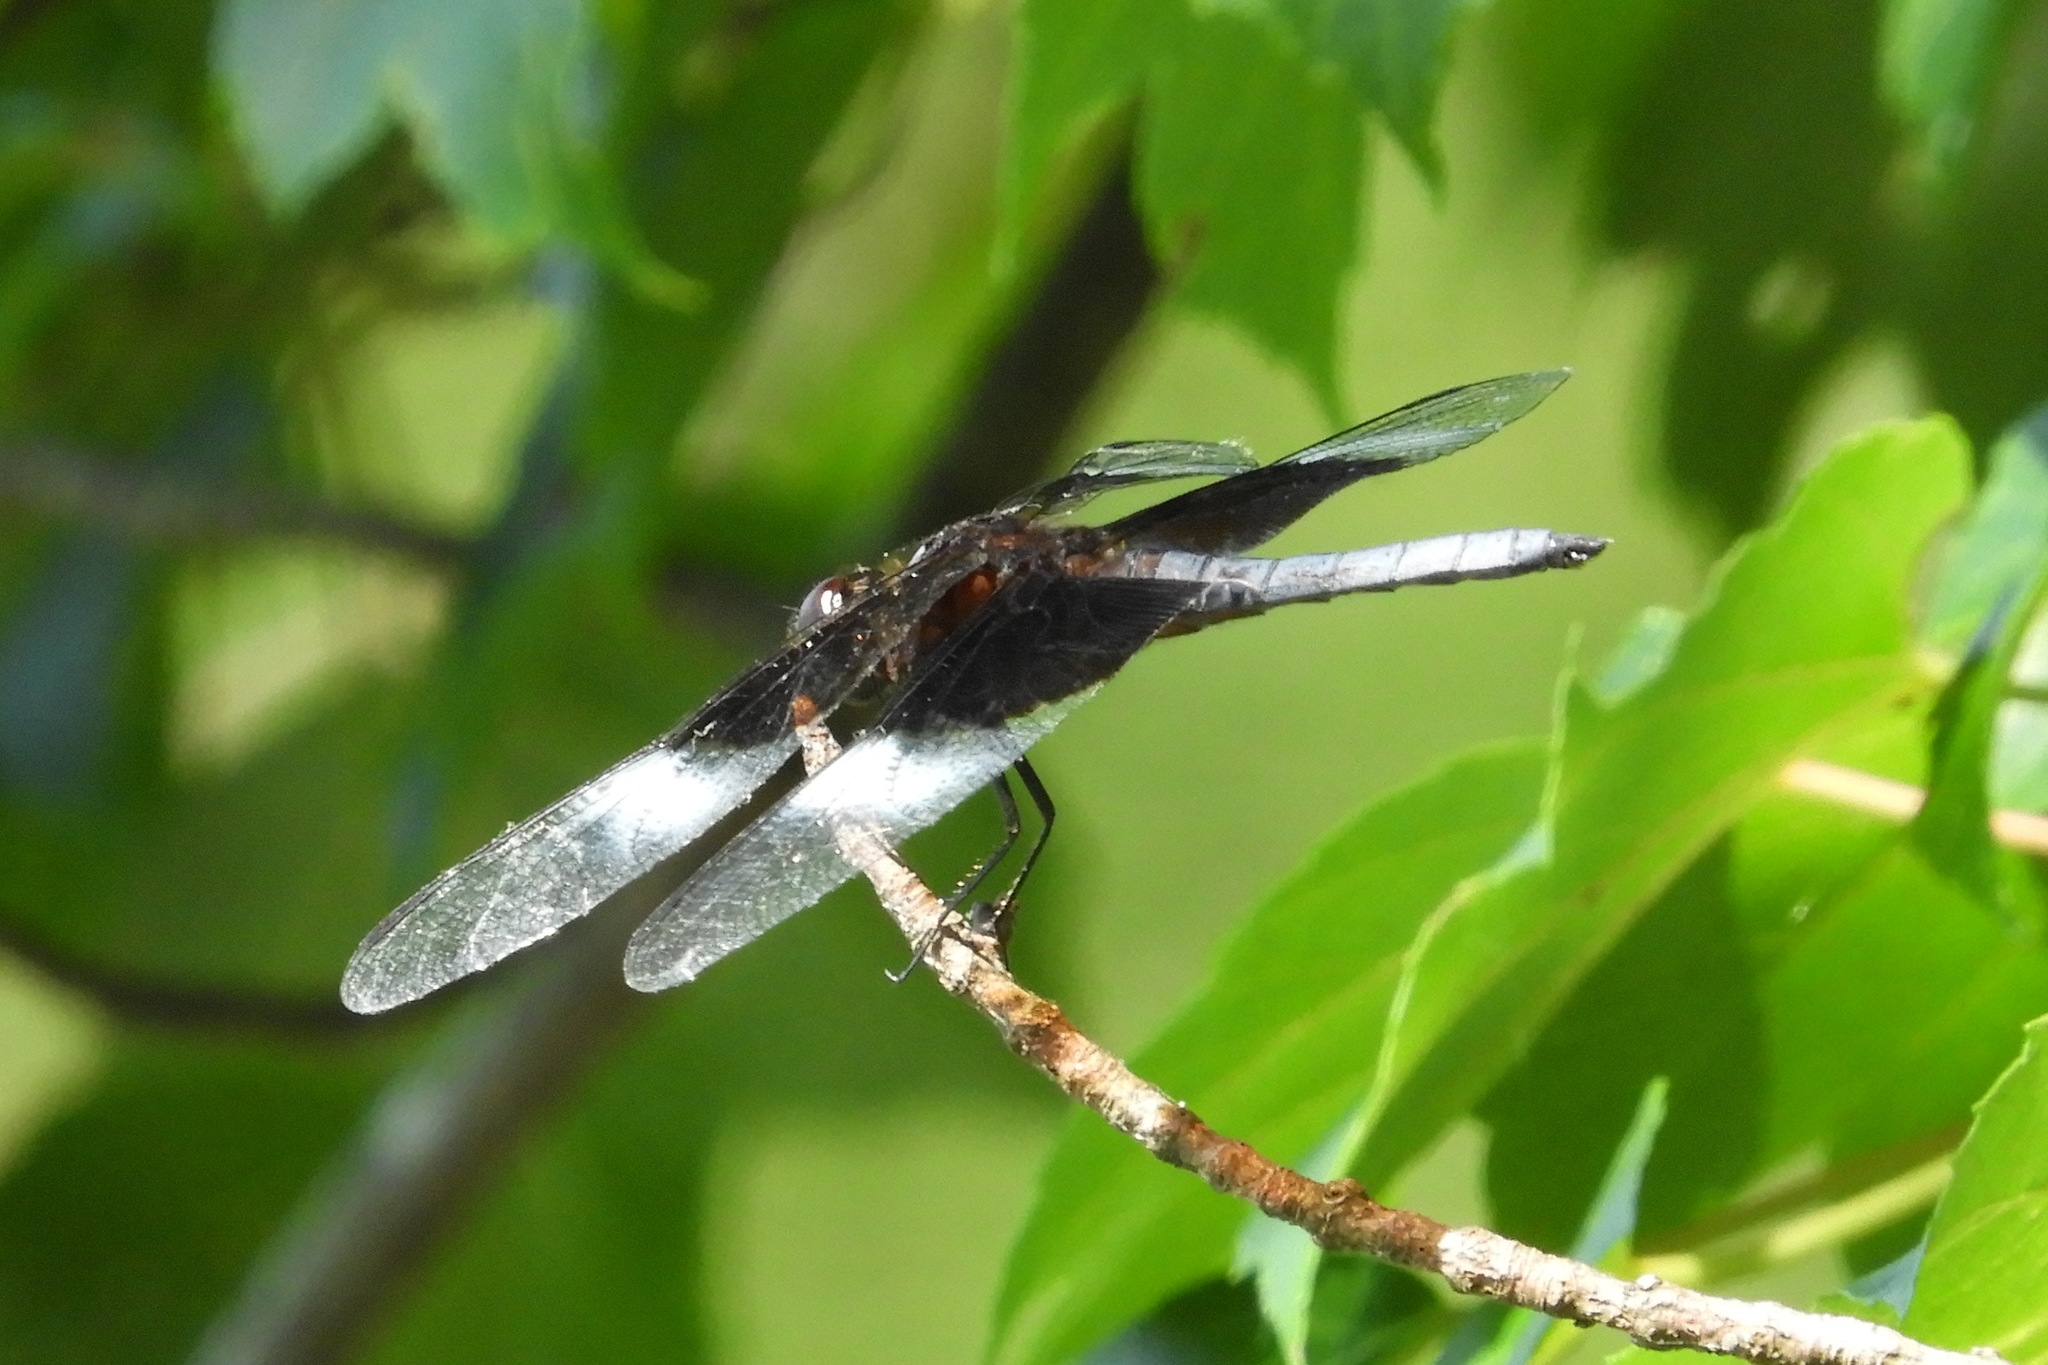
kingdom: Animalia
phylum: Arthropoda
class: Insecta
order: Odonata
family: Libellulidae
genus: Libellula
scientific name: Libellula luctuosa
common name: Widow skimmer
